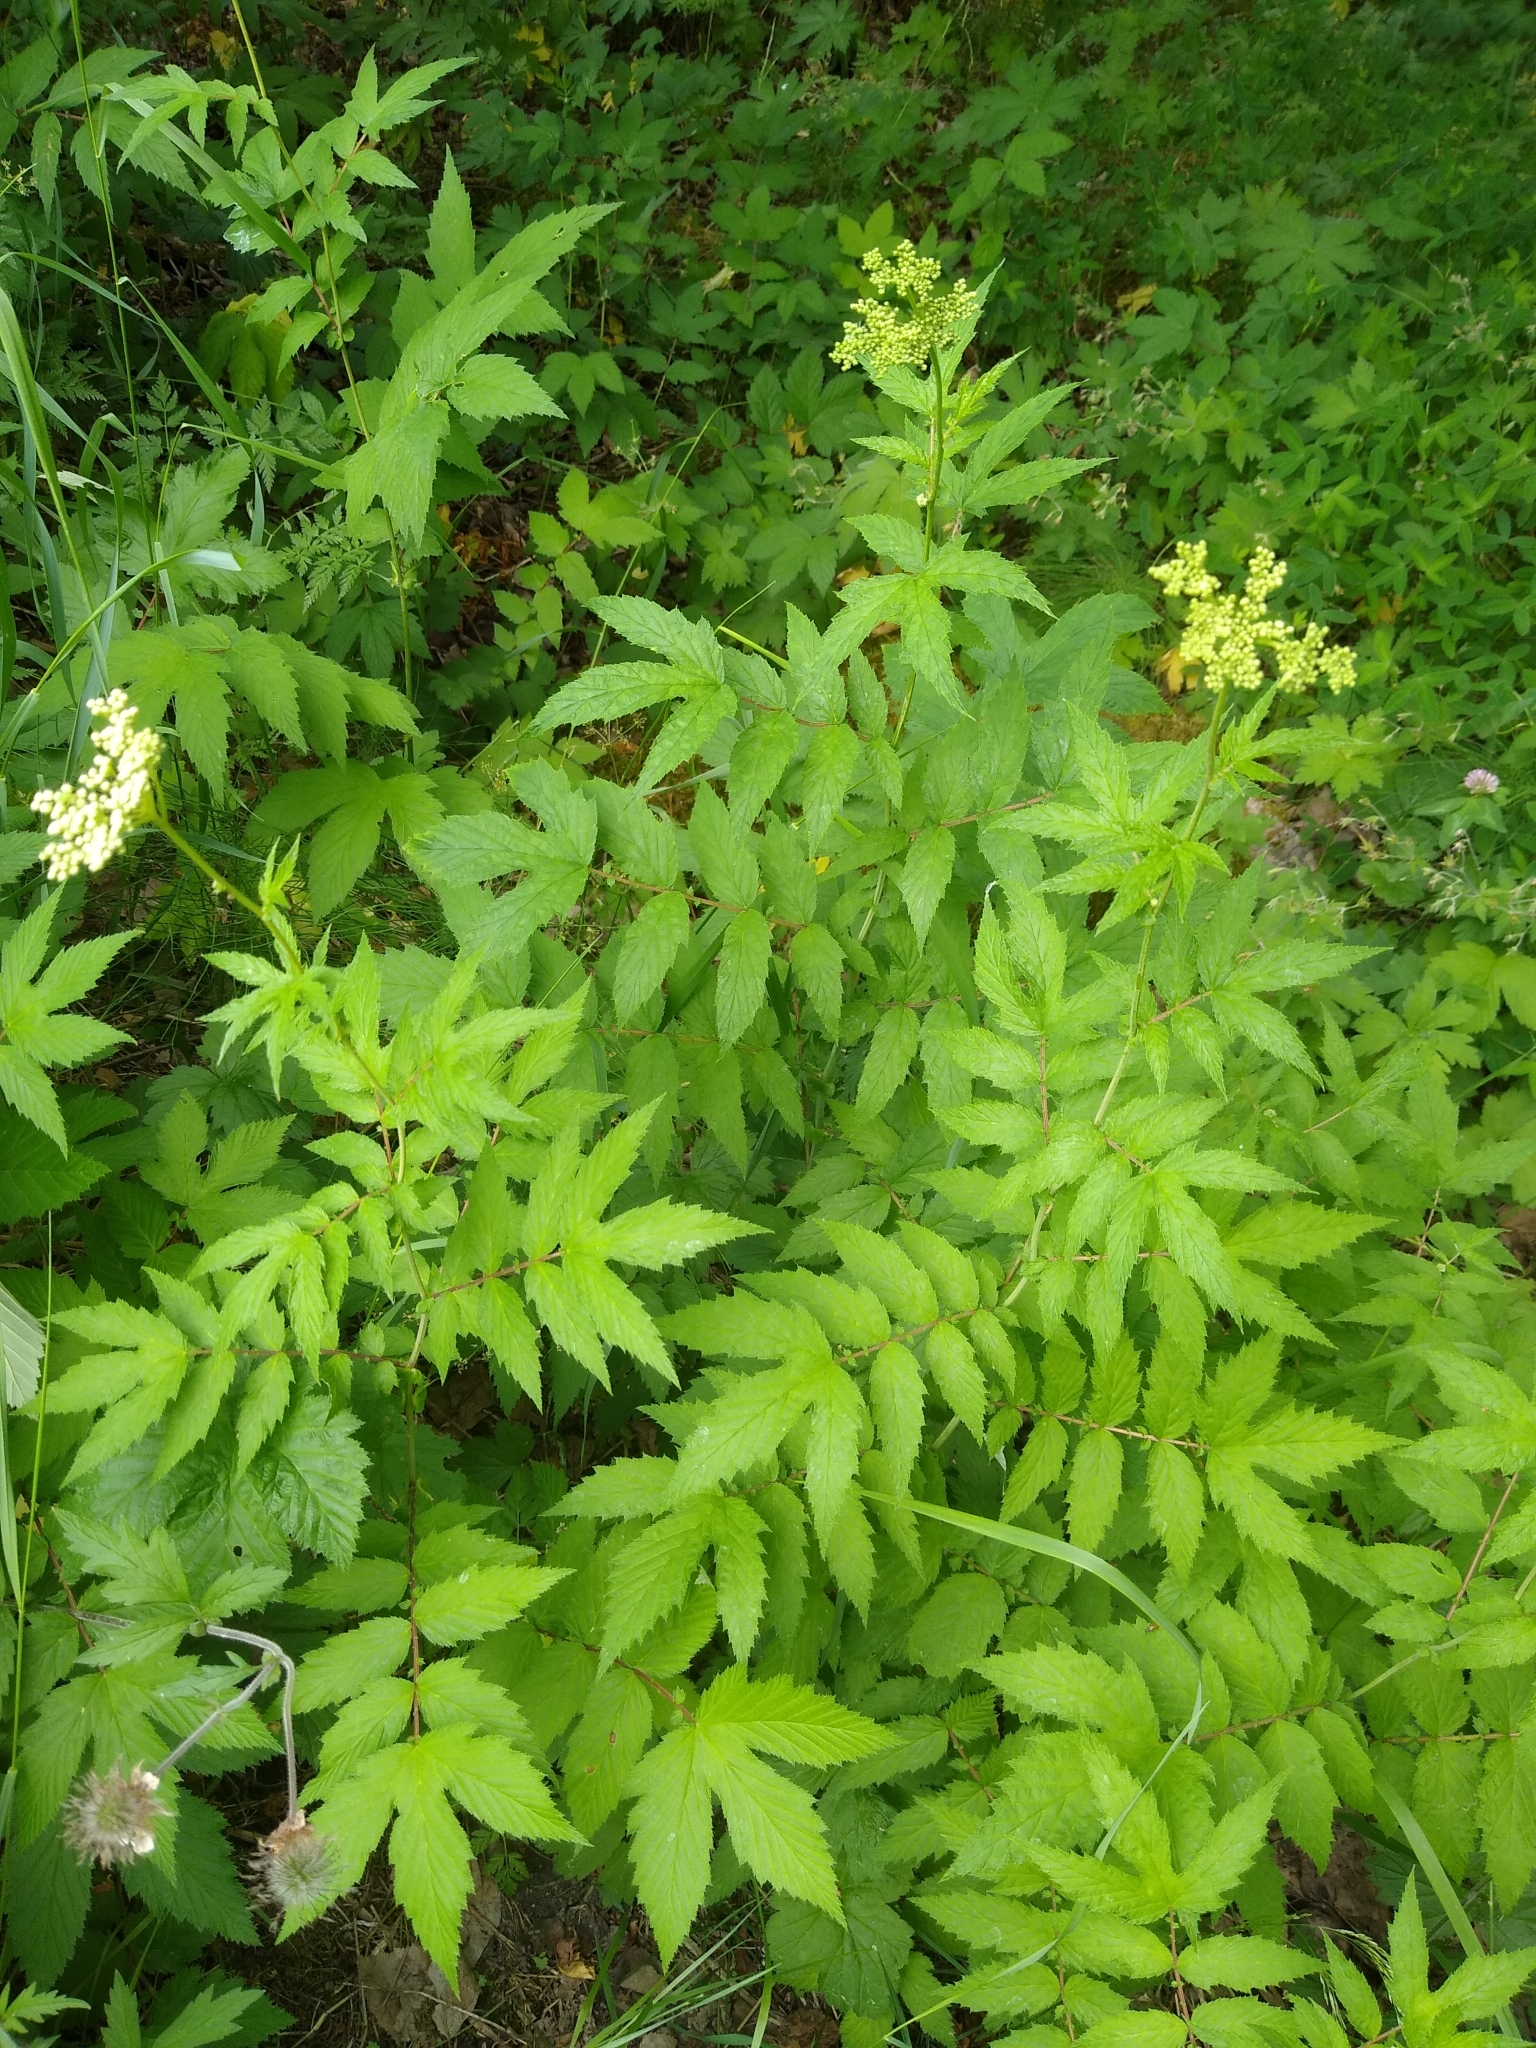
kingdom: Plantae
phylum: Tracheophyta
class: Magnoliopsida
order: Rosales
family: Rosaceae
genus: Filipendula
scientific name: Filipendula ulmaria
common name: Meadowsweet
